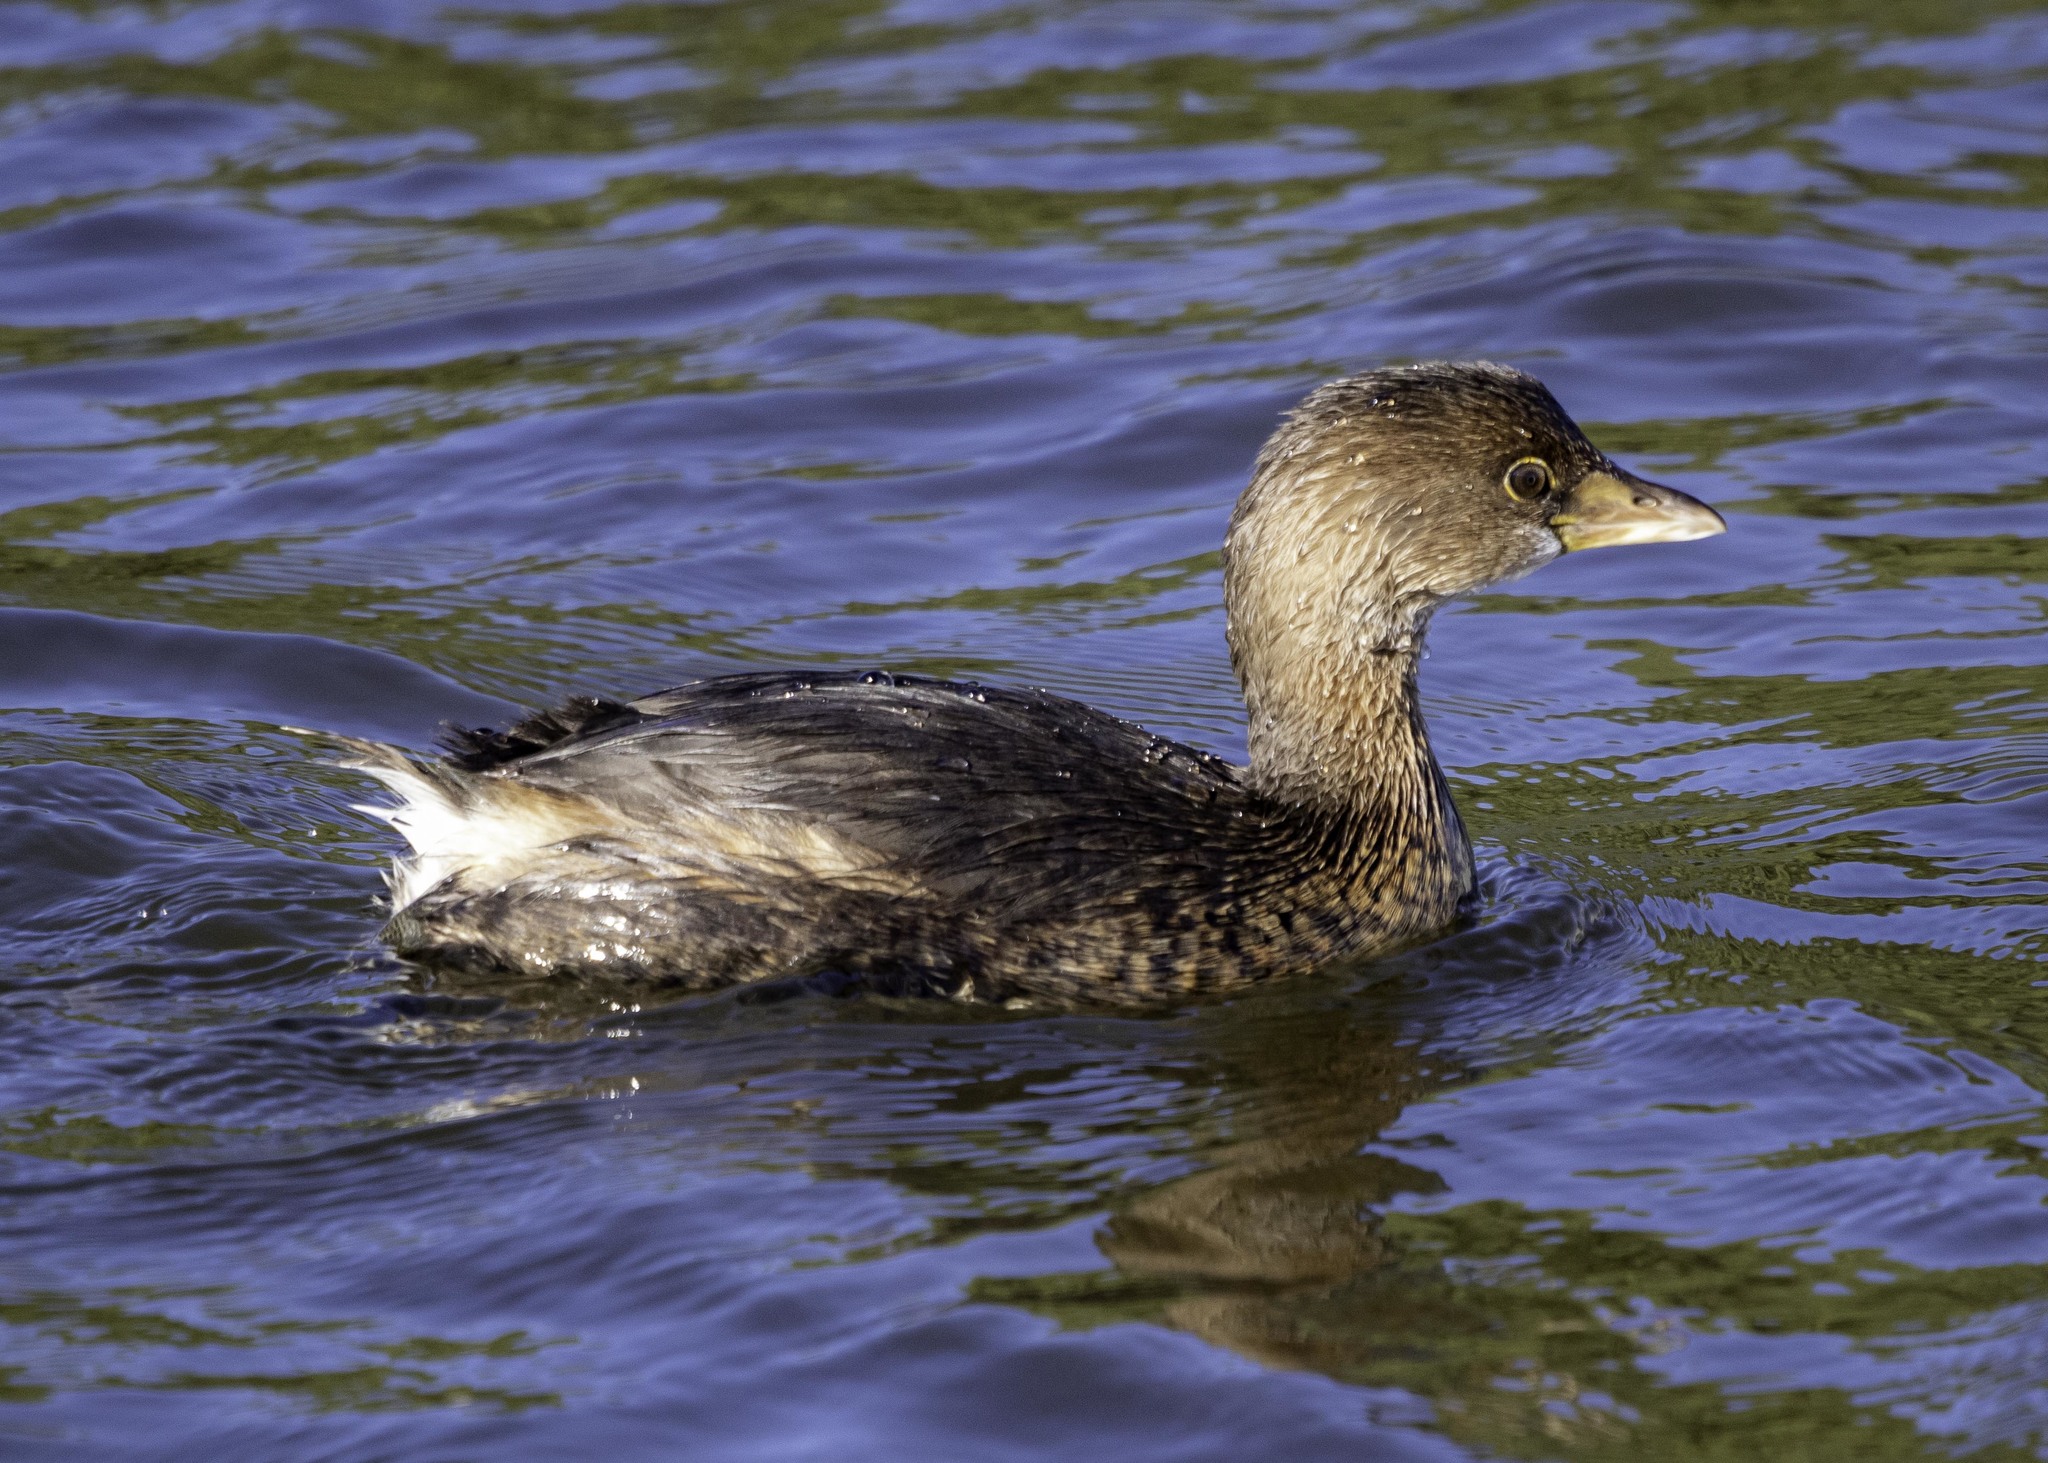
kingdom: Animalia
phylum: Chordata
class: Aves
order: Podicipediformes
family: Podicipedidae
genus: Podilymbus
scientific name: Podilymbus podiceps
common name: Pied-billed grebe
